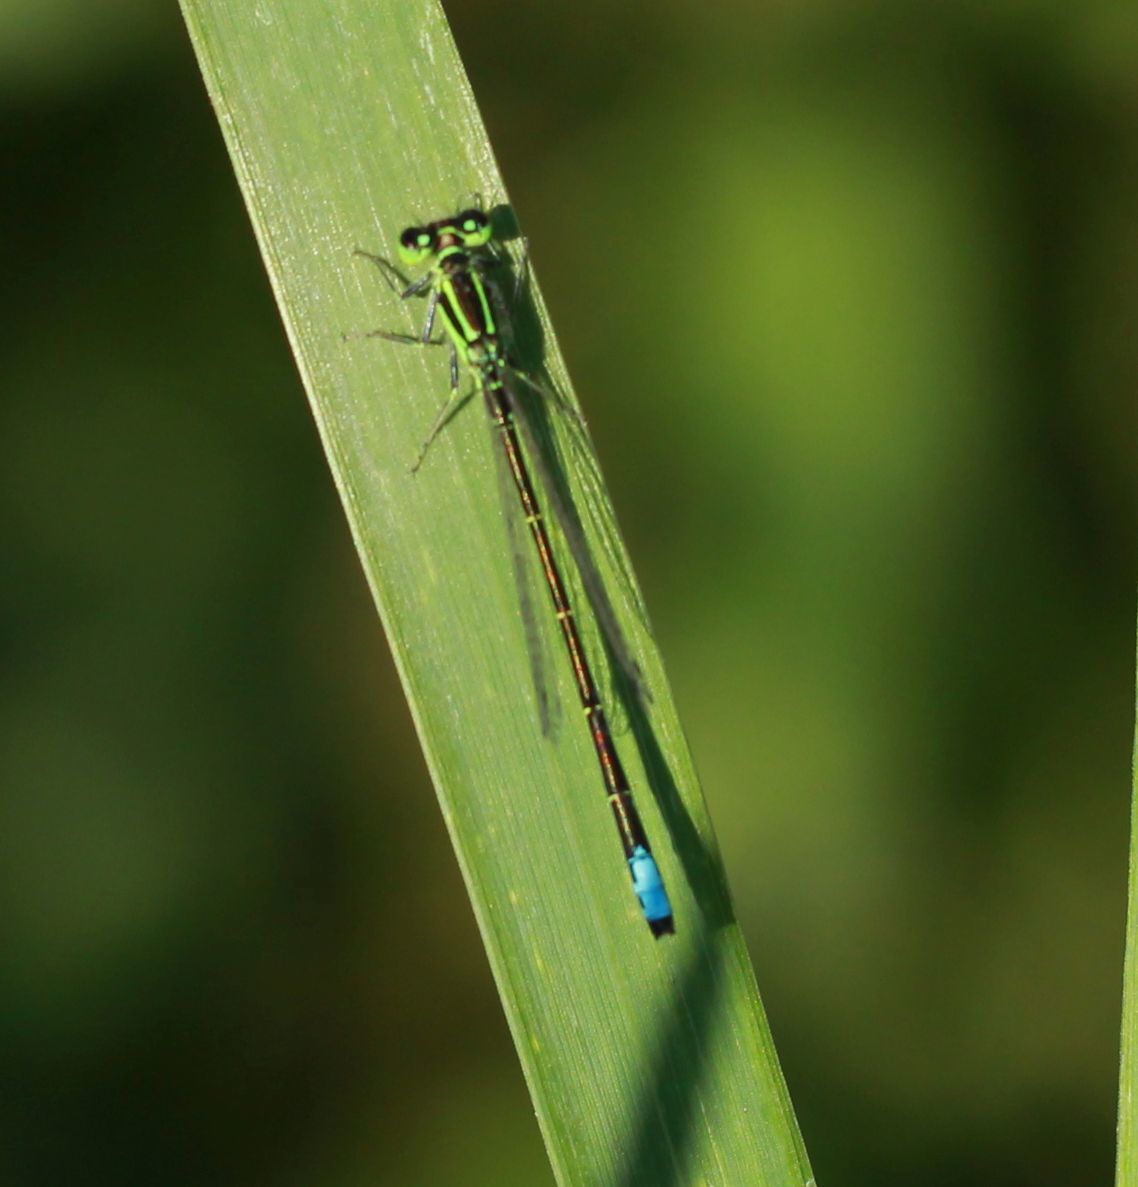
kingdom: Animalia
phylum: Arthropoda
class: Insecta
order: Odonata
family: Coenagrionidae
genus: Ischnura
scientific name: Ischnura verticalis
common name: Eastern forktail
